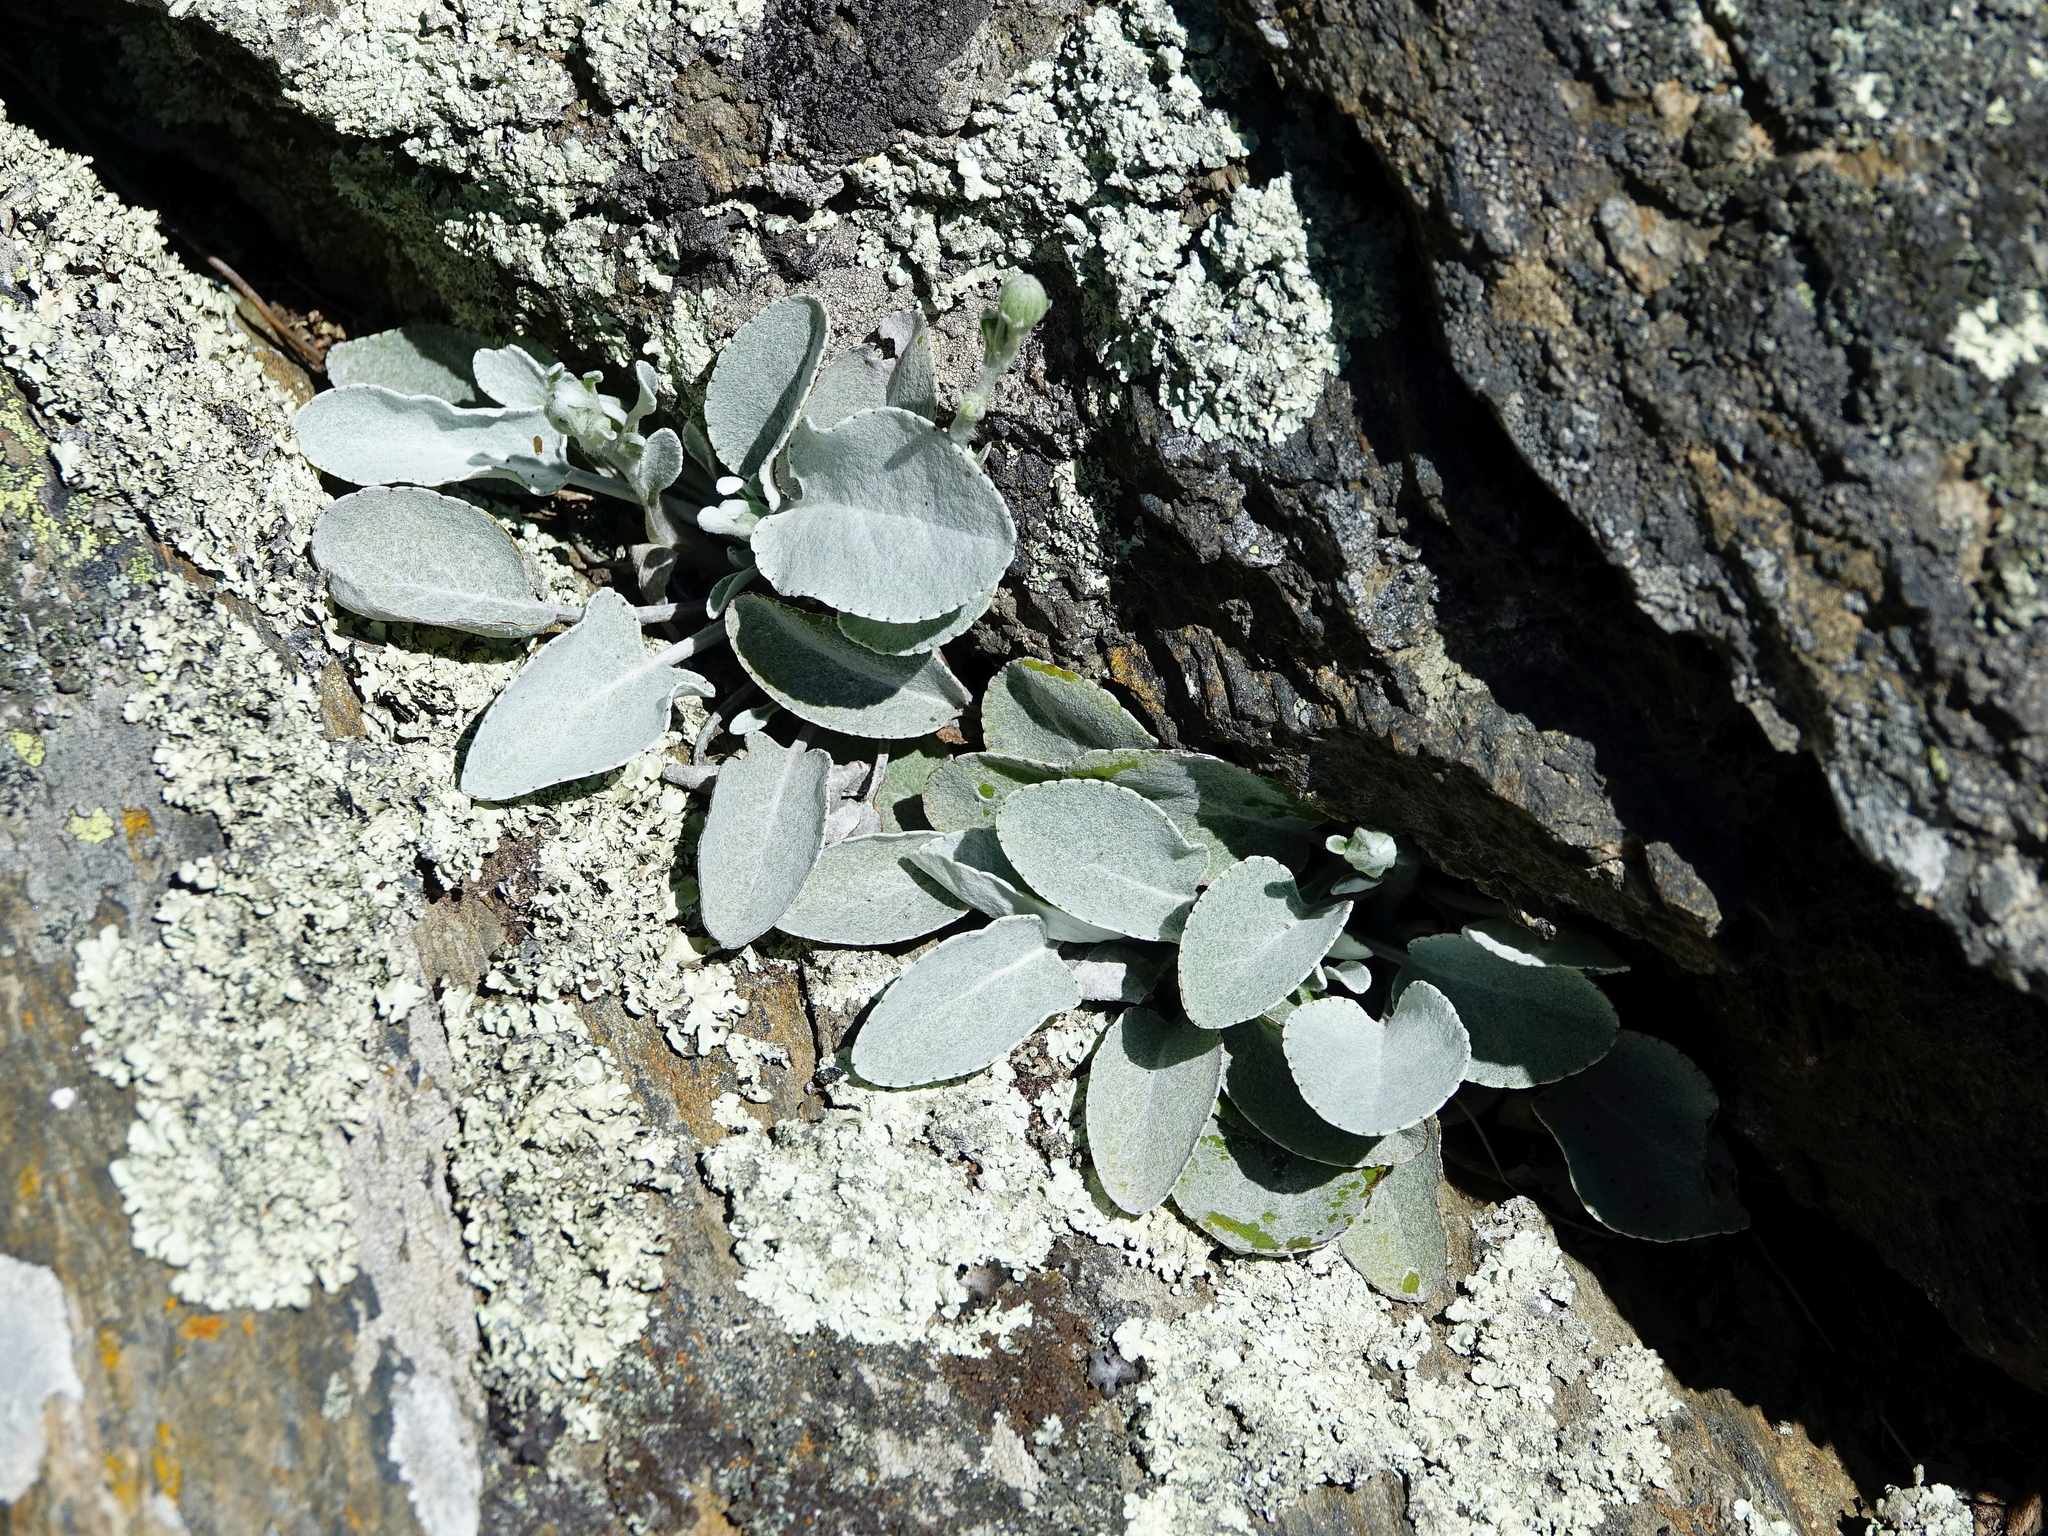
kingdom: Plantae
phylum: Tracheophyta
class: Magnoliopsida
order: Asterales
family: Asteraceae
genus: Brachyglottis
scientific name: Brachyglottis haastii
